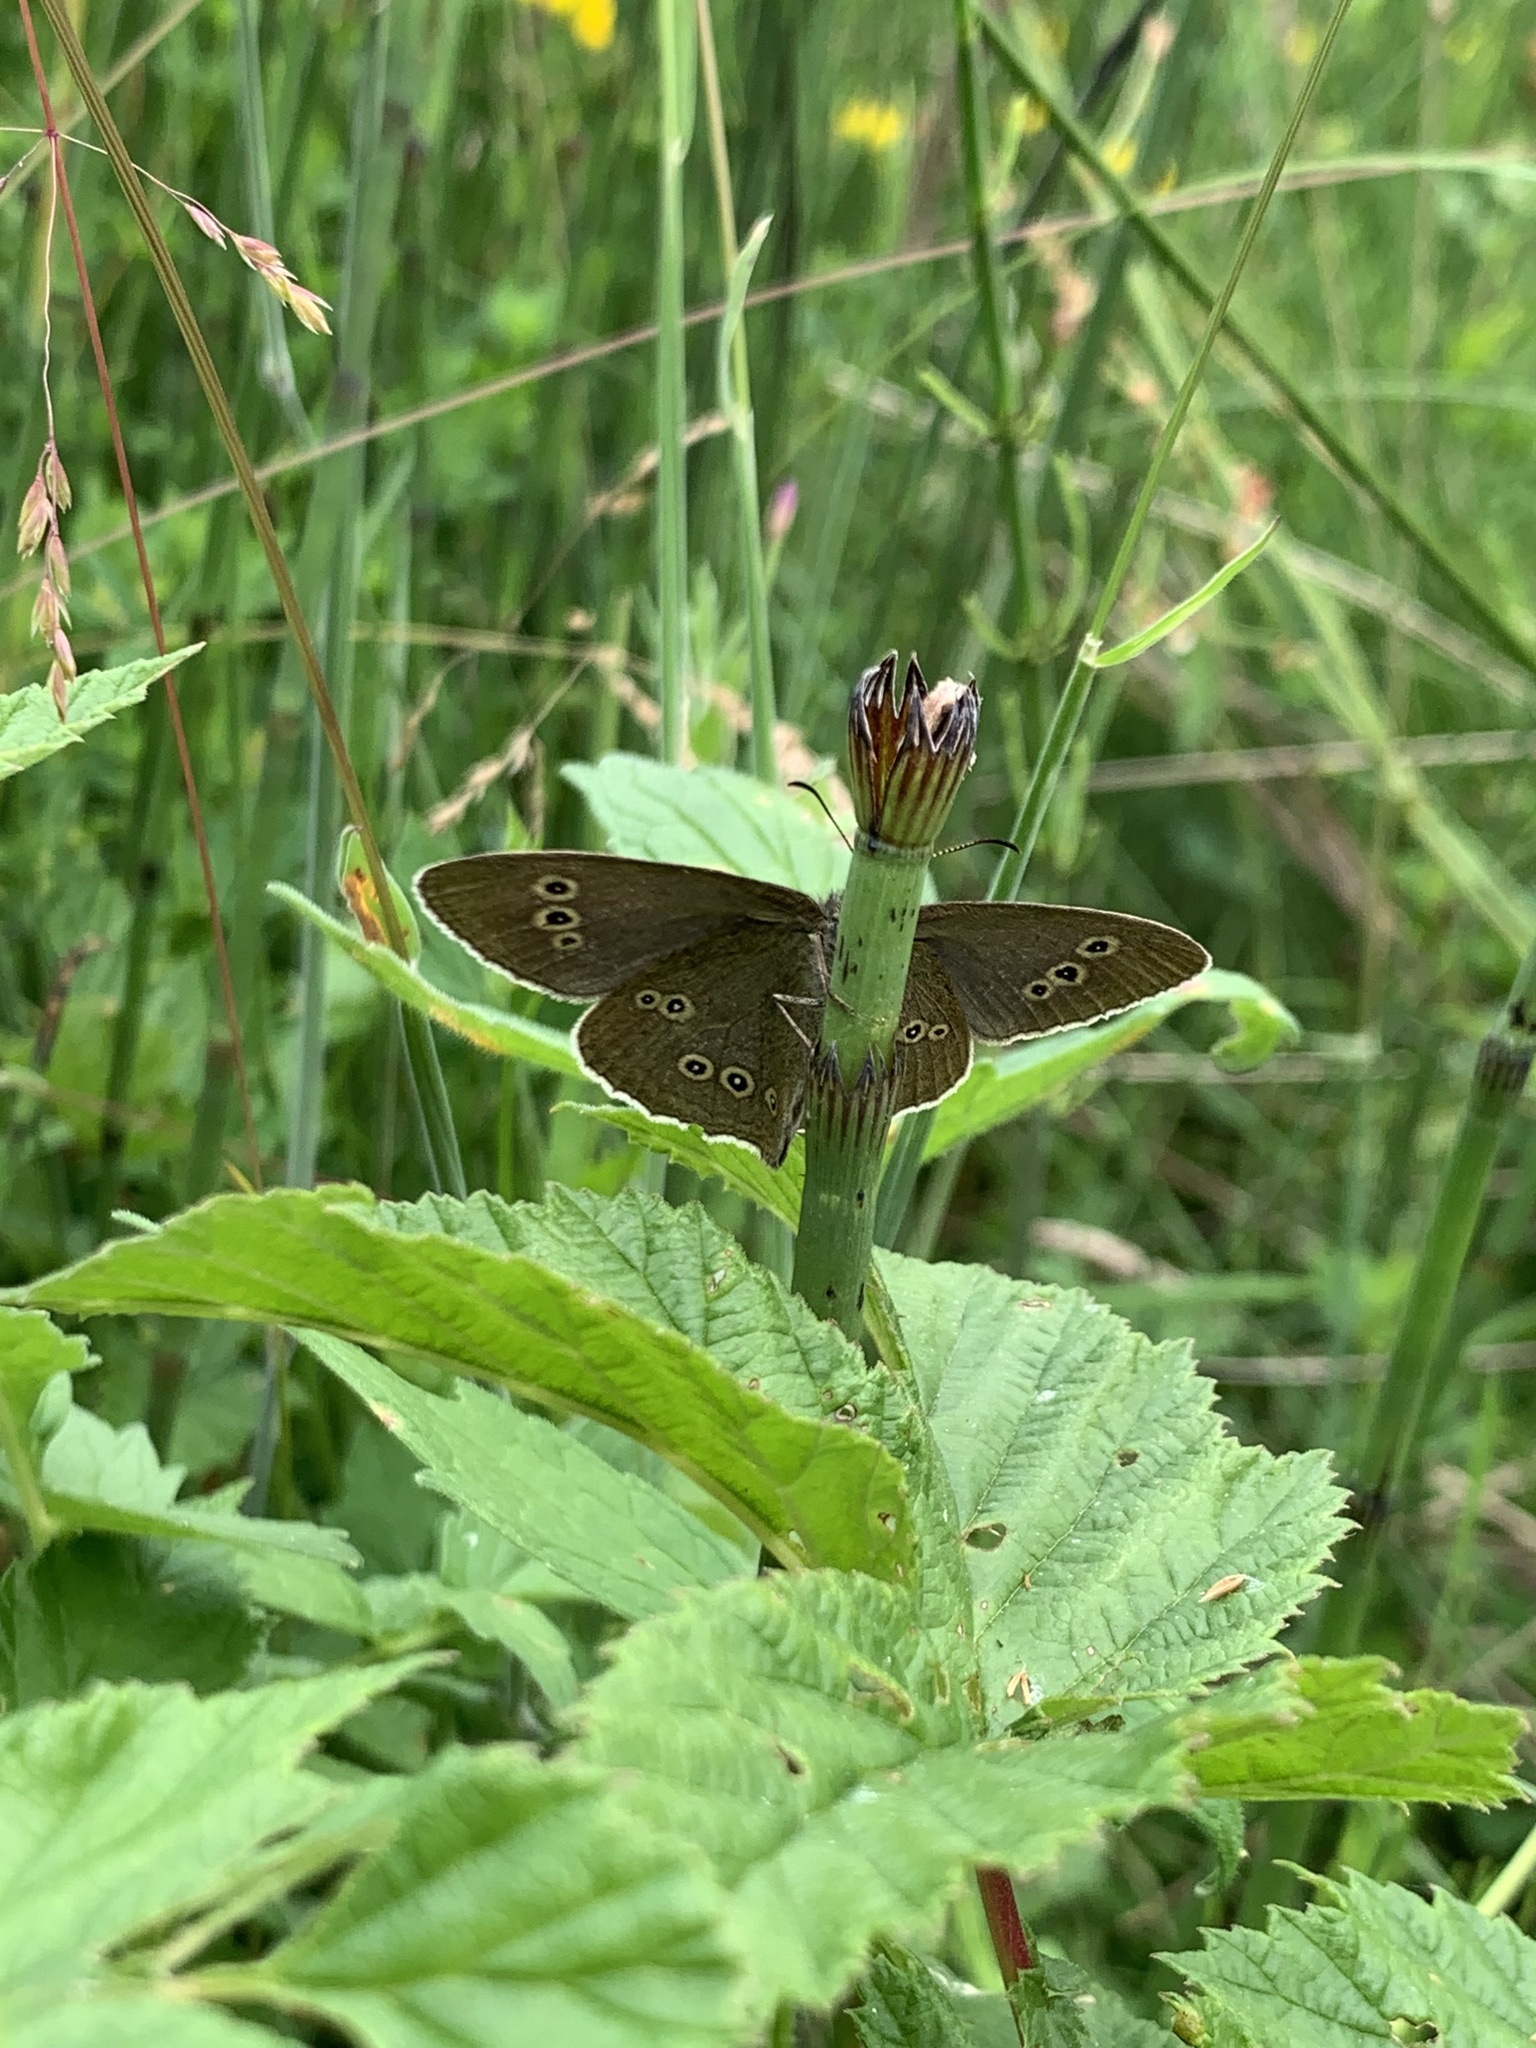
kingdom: Animalia
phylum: Arthropoda
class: Insecta
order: Lepidoptera
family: Nymphalidae
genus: Aphantopus
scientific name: Aphantopus hyperantus
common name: Ringlet
